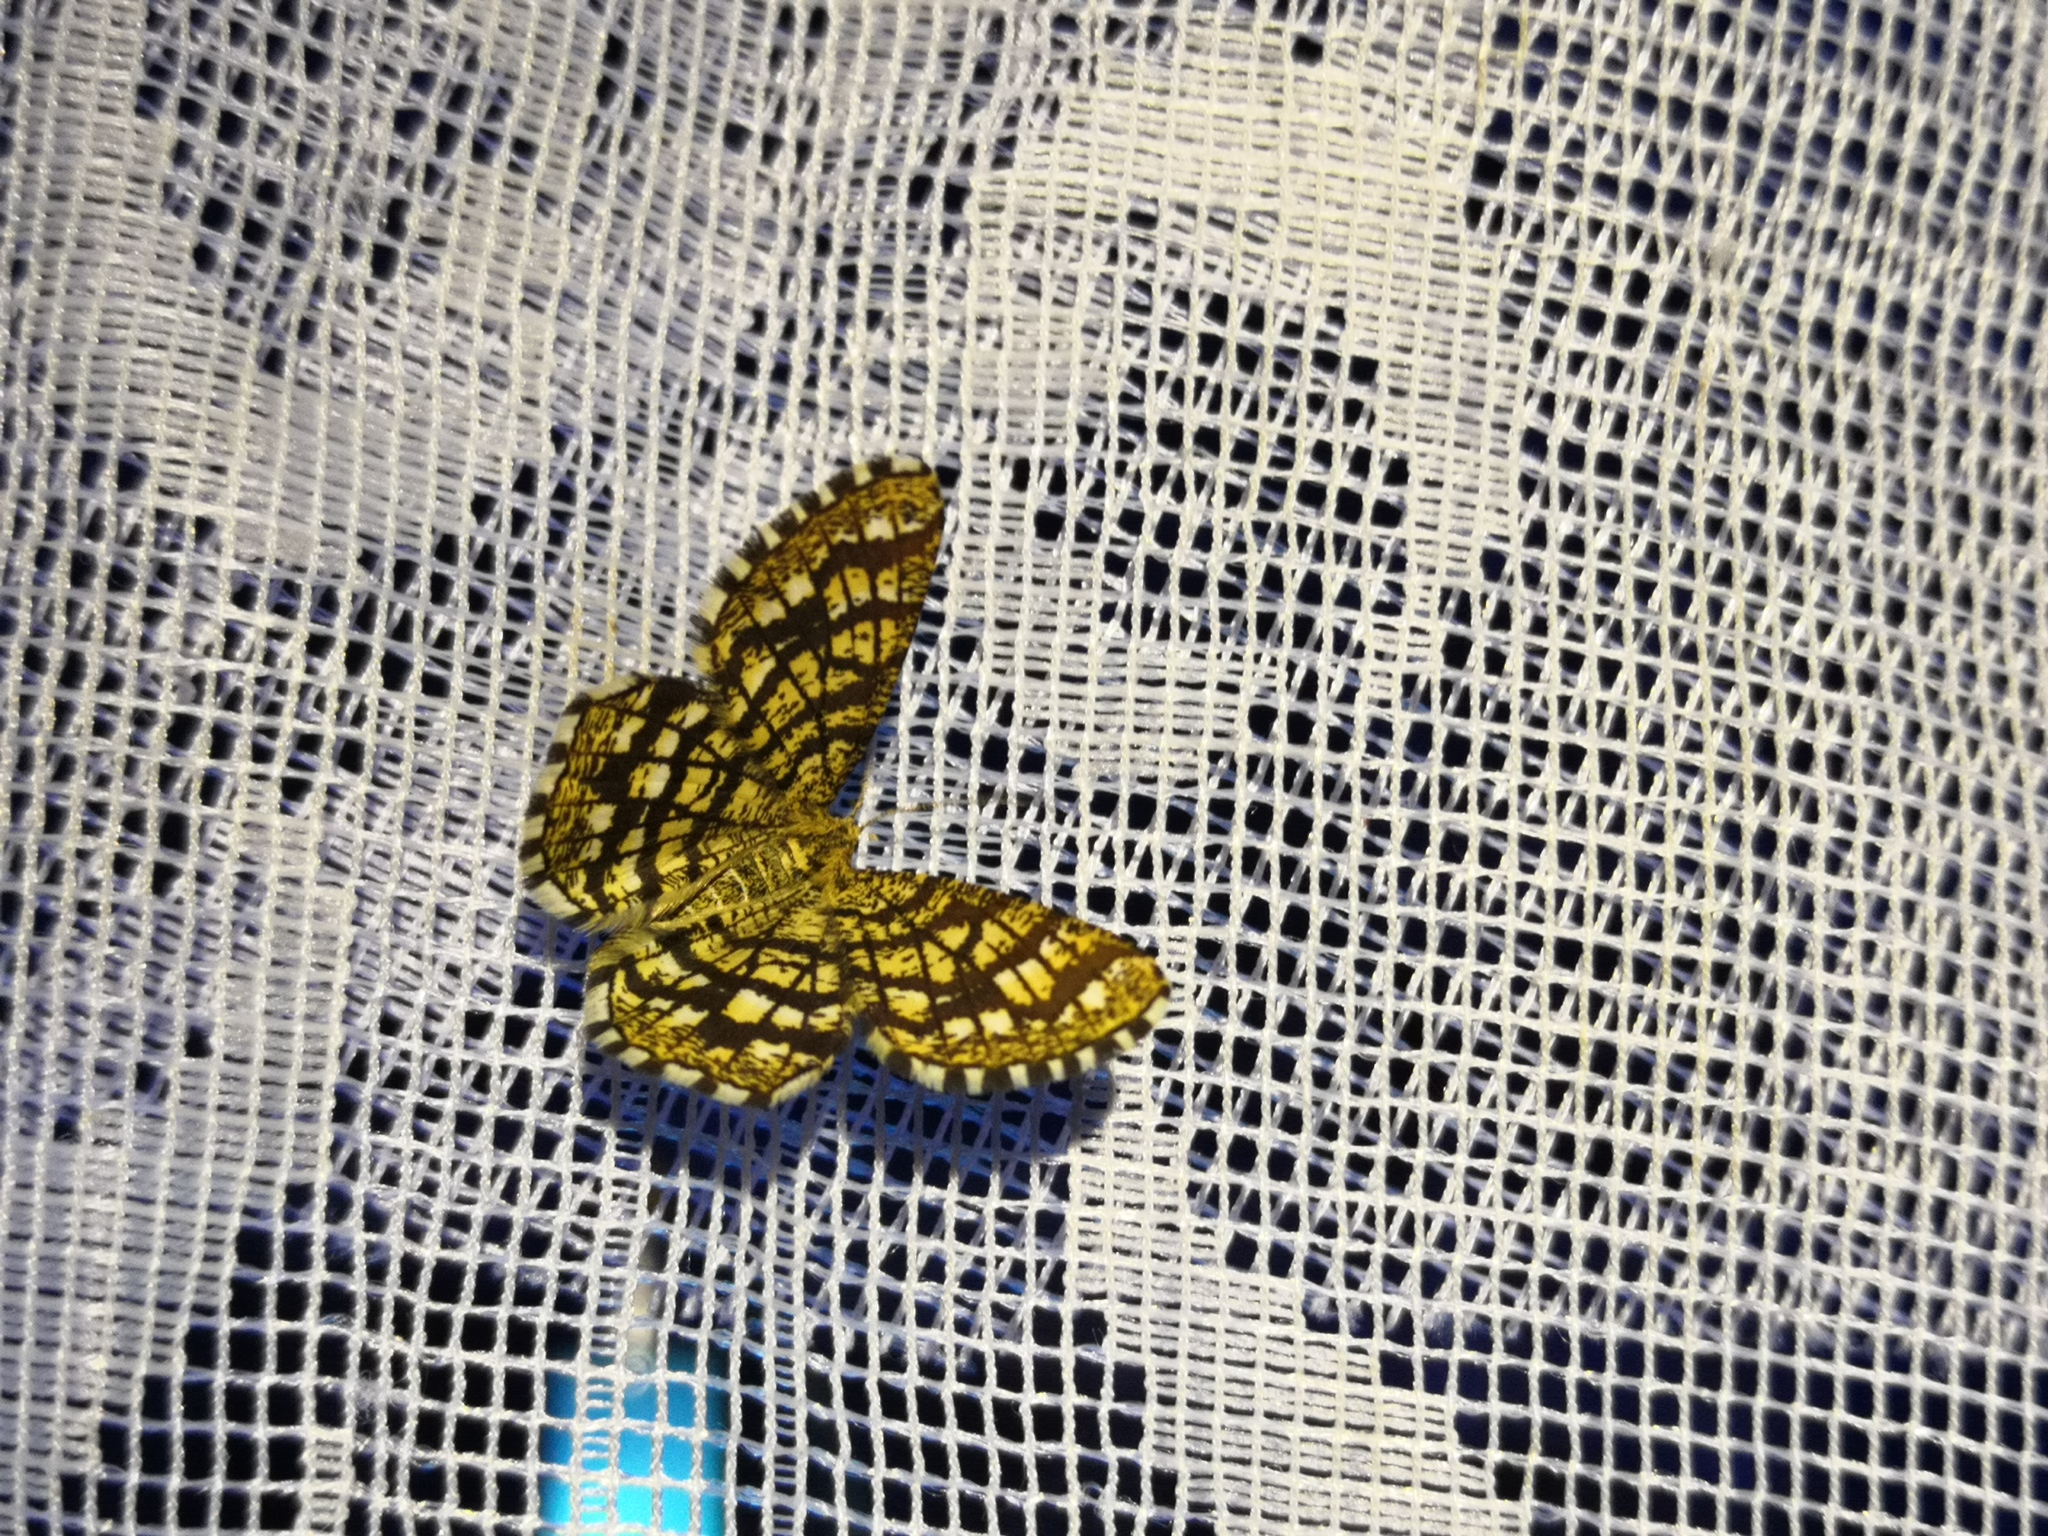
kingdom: Animalia
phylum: Arthropoda
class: Insecta
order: Lepidoptera
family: Geometridae
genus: Chiasmia
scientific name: Chiasmia clathrata
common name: Latticed heath
